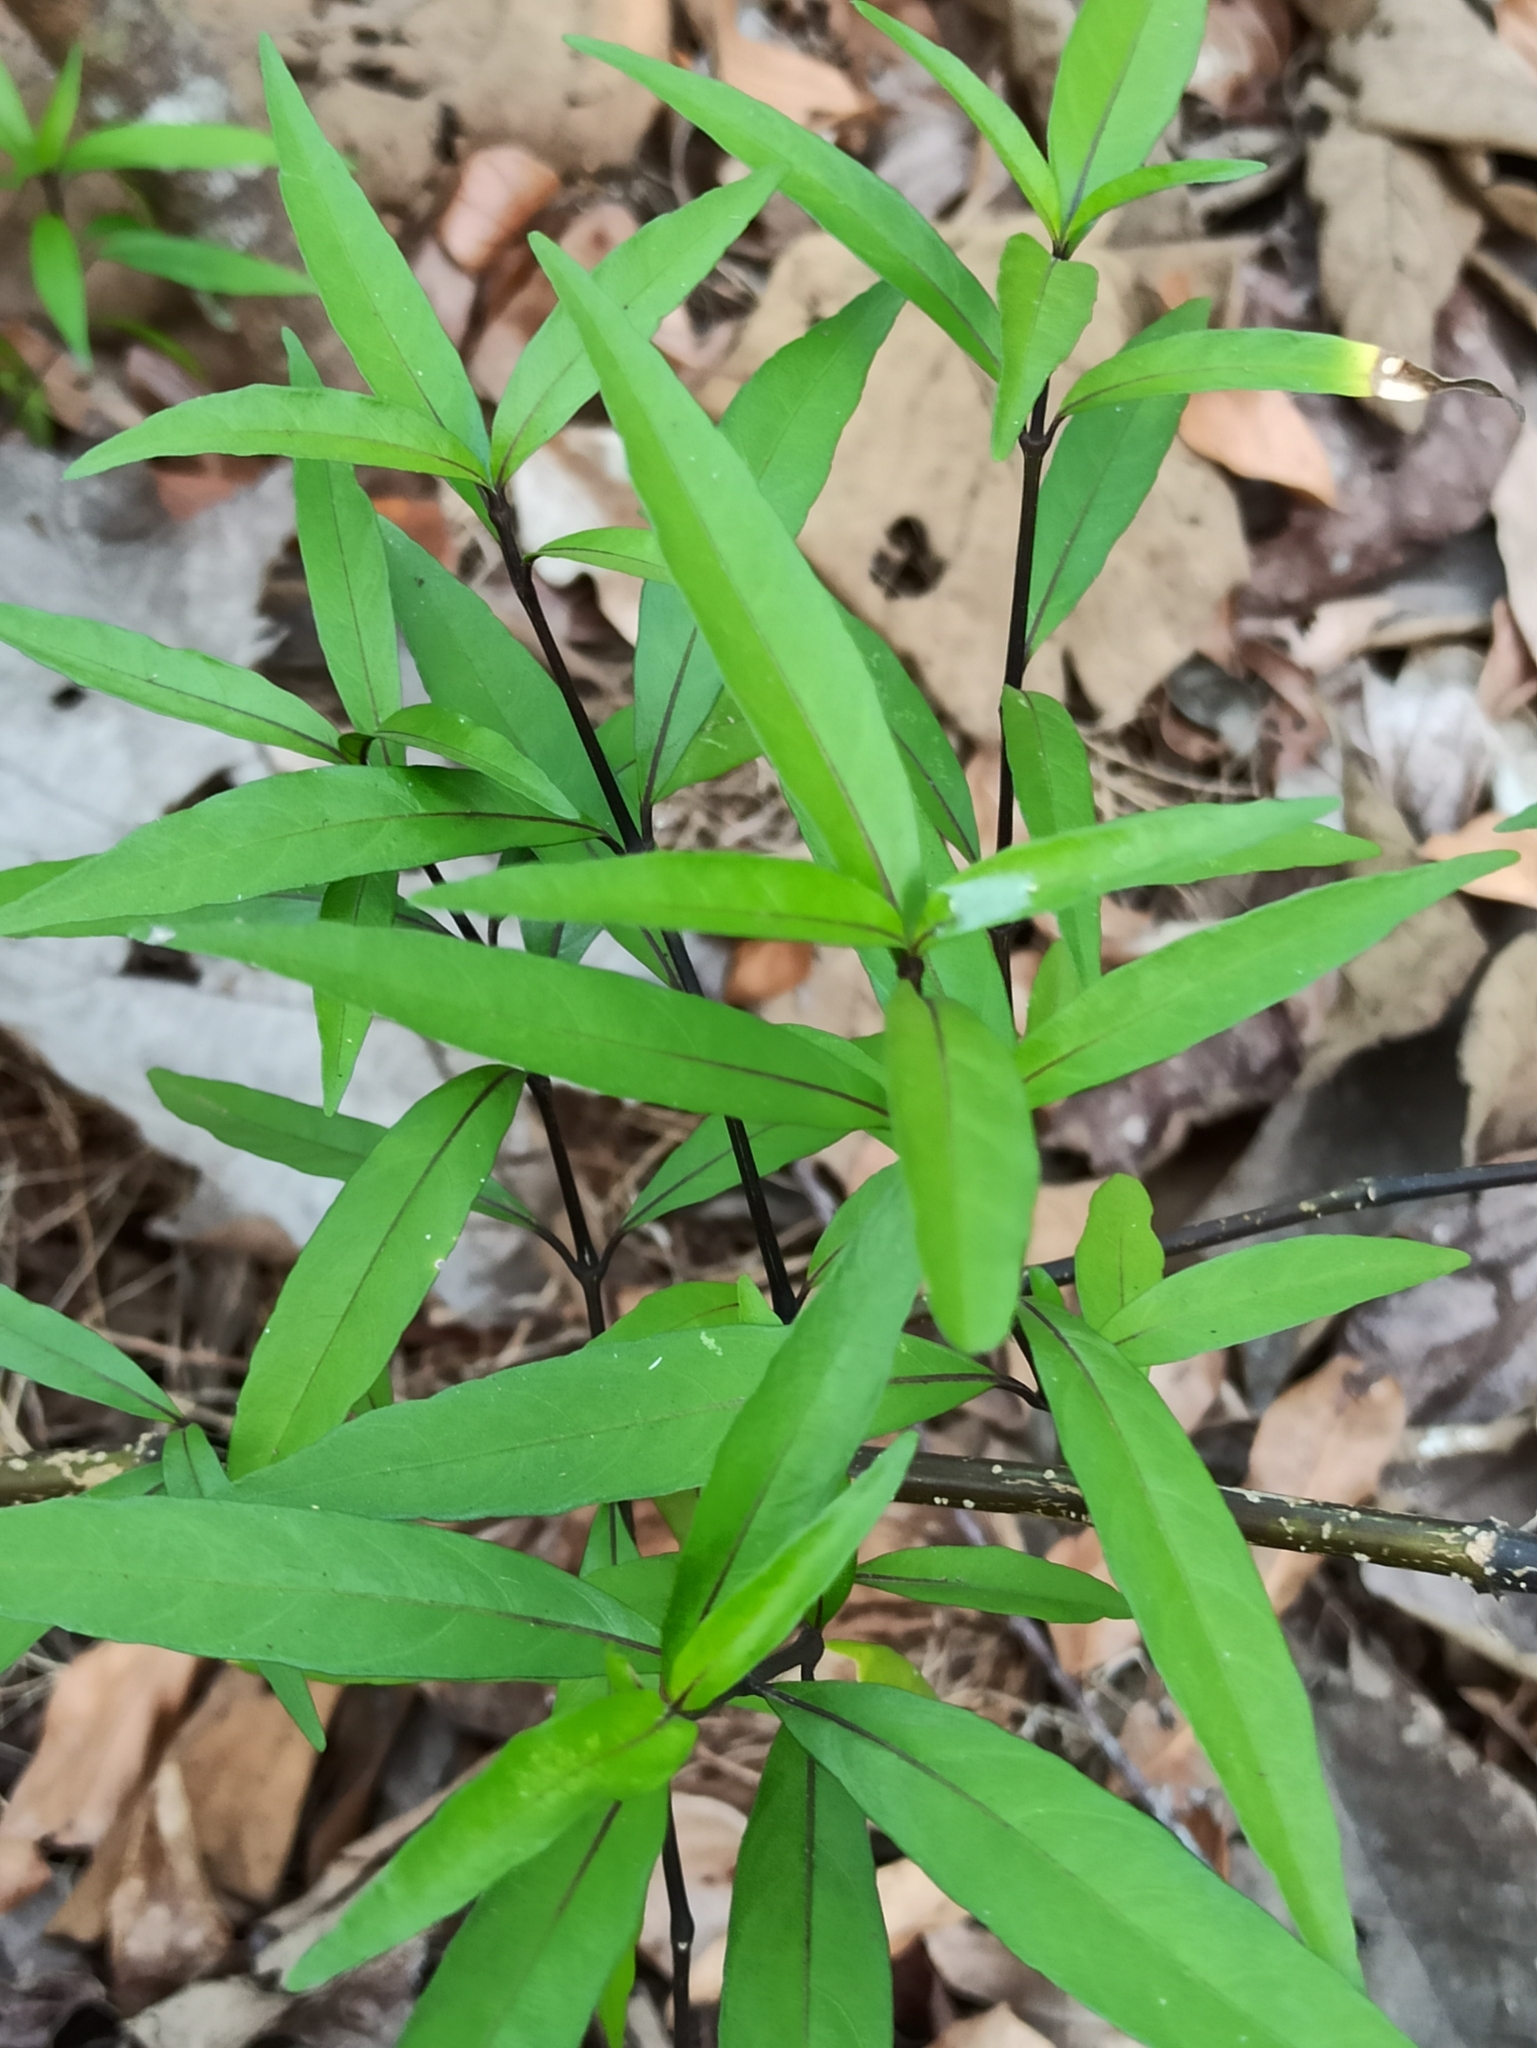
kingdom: Plantae
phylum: Tracheophyta
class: Magnoliopsida
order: Lamiales
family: Acanthaceae
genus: Justicia
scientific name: Justicia gendarussa
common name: Warer willow
